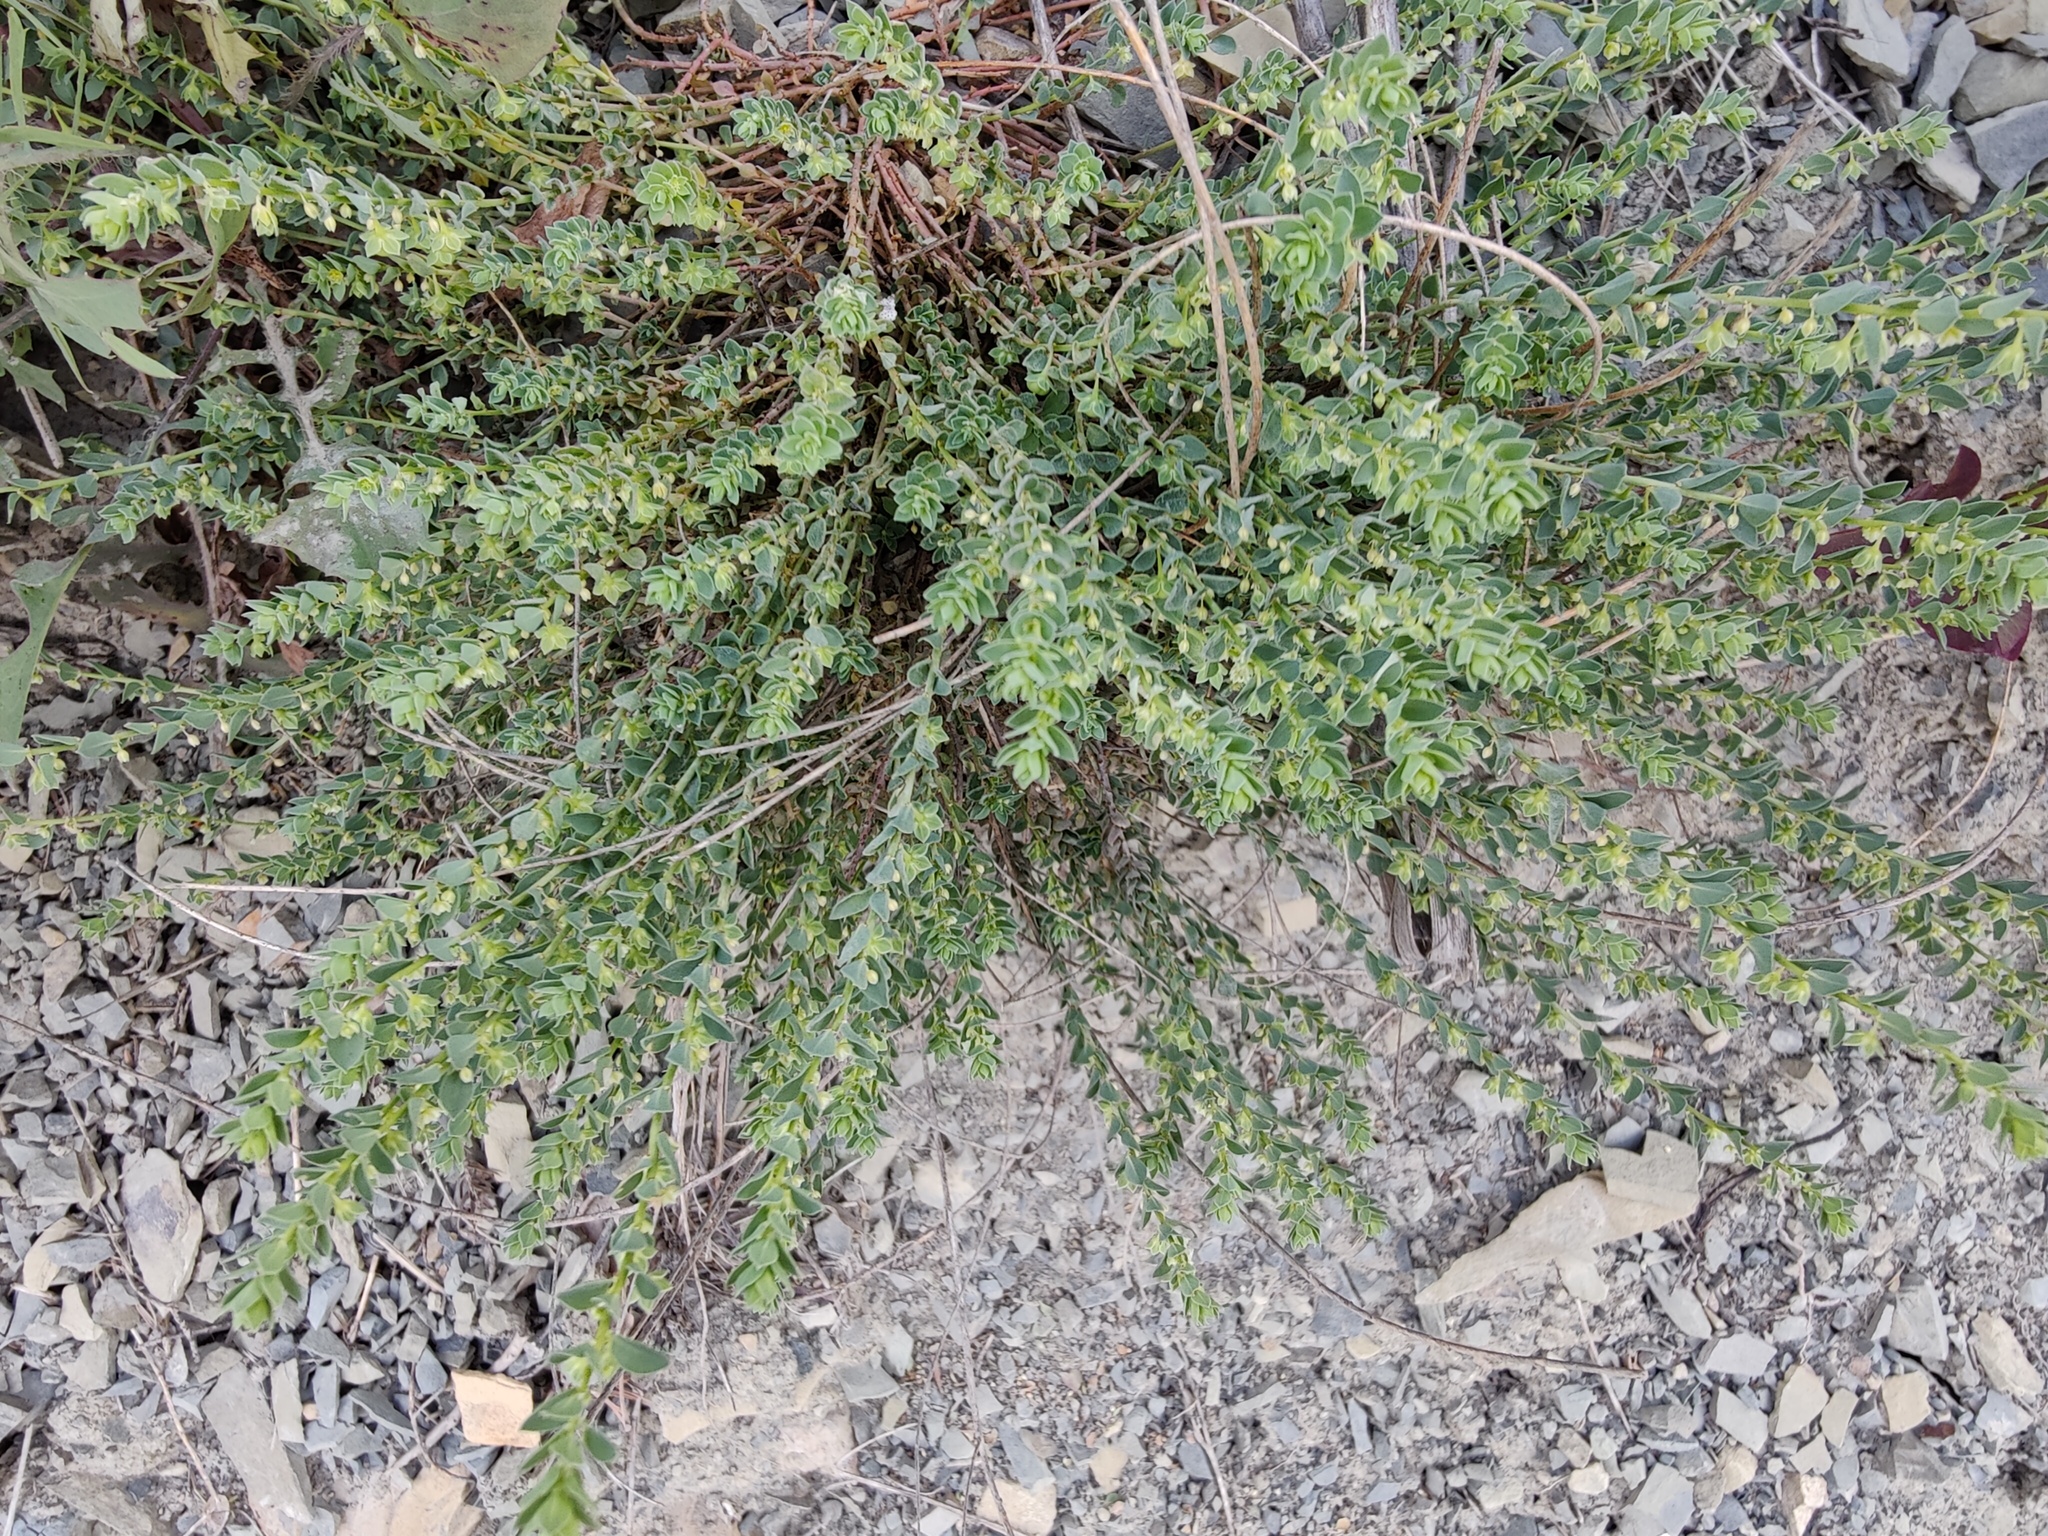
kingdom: Plantae
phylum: Tracheophyta
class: Magnoliopsida
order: Malpighiales
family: Phyllanthaceae
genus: Andrachne
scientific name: Andrachne telephioides
